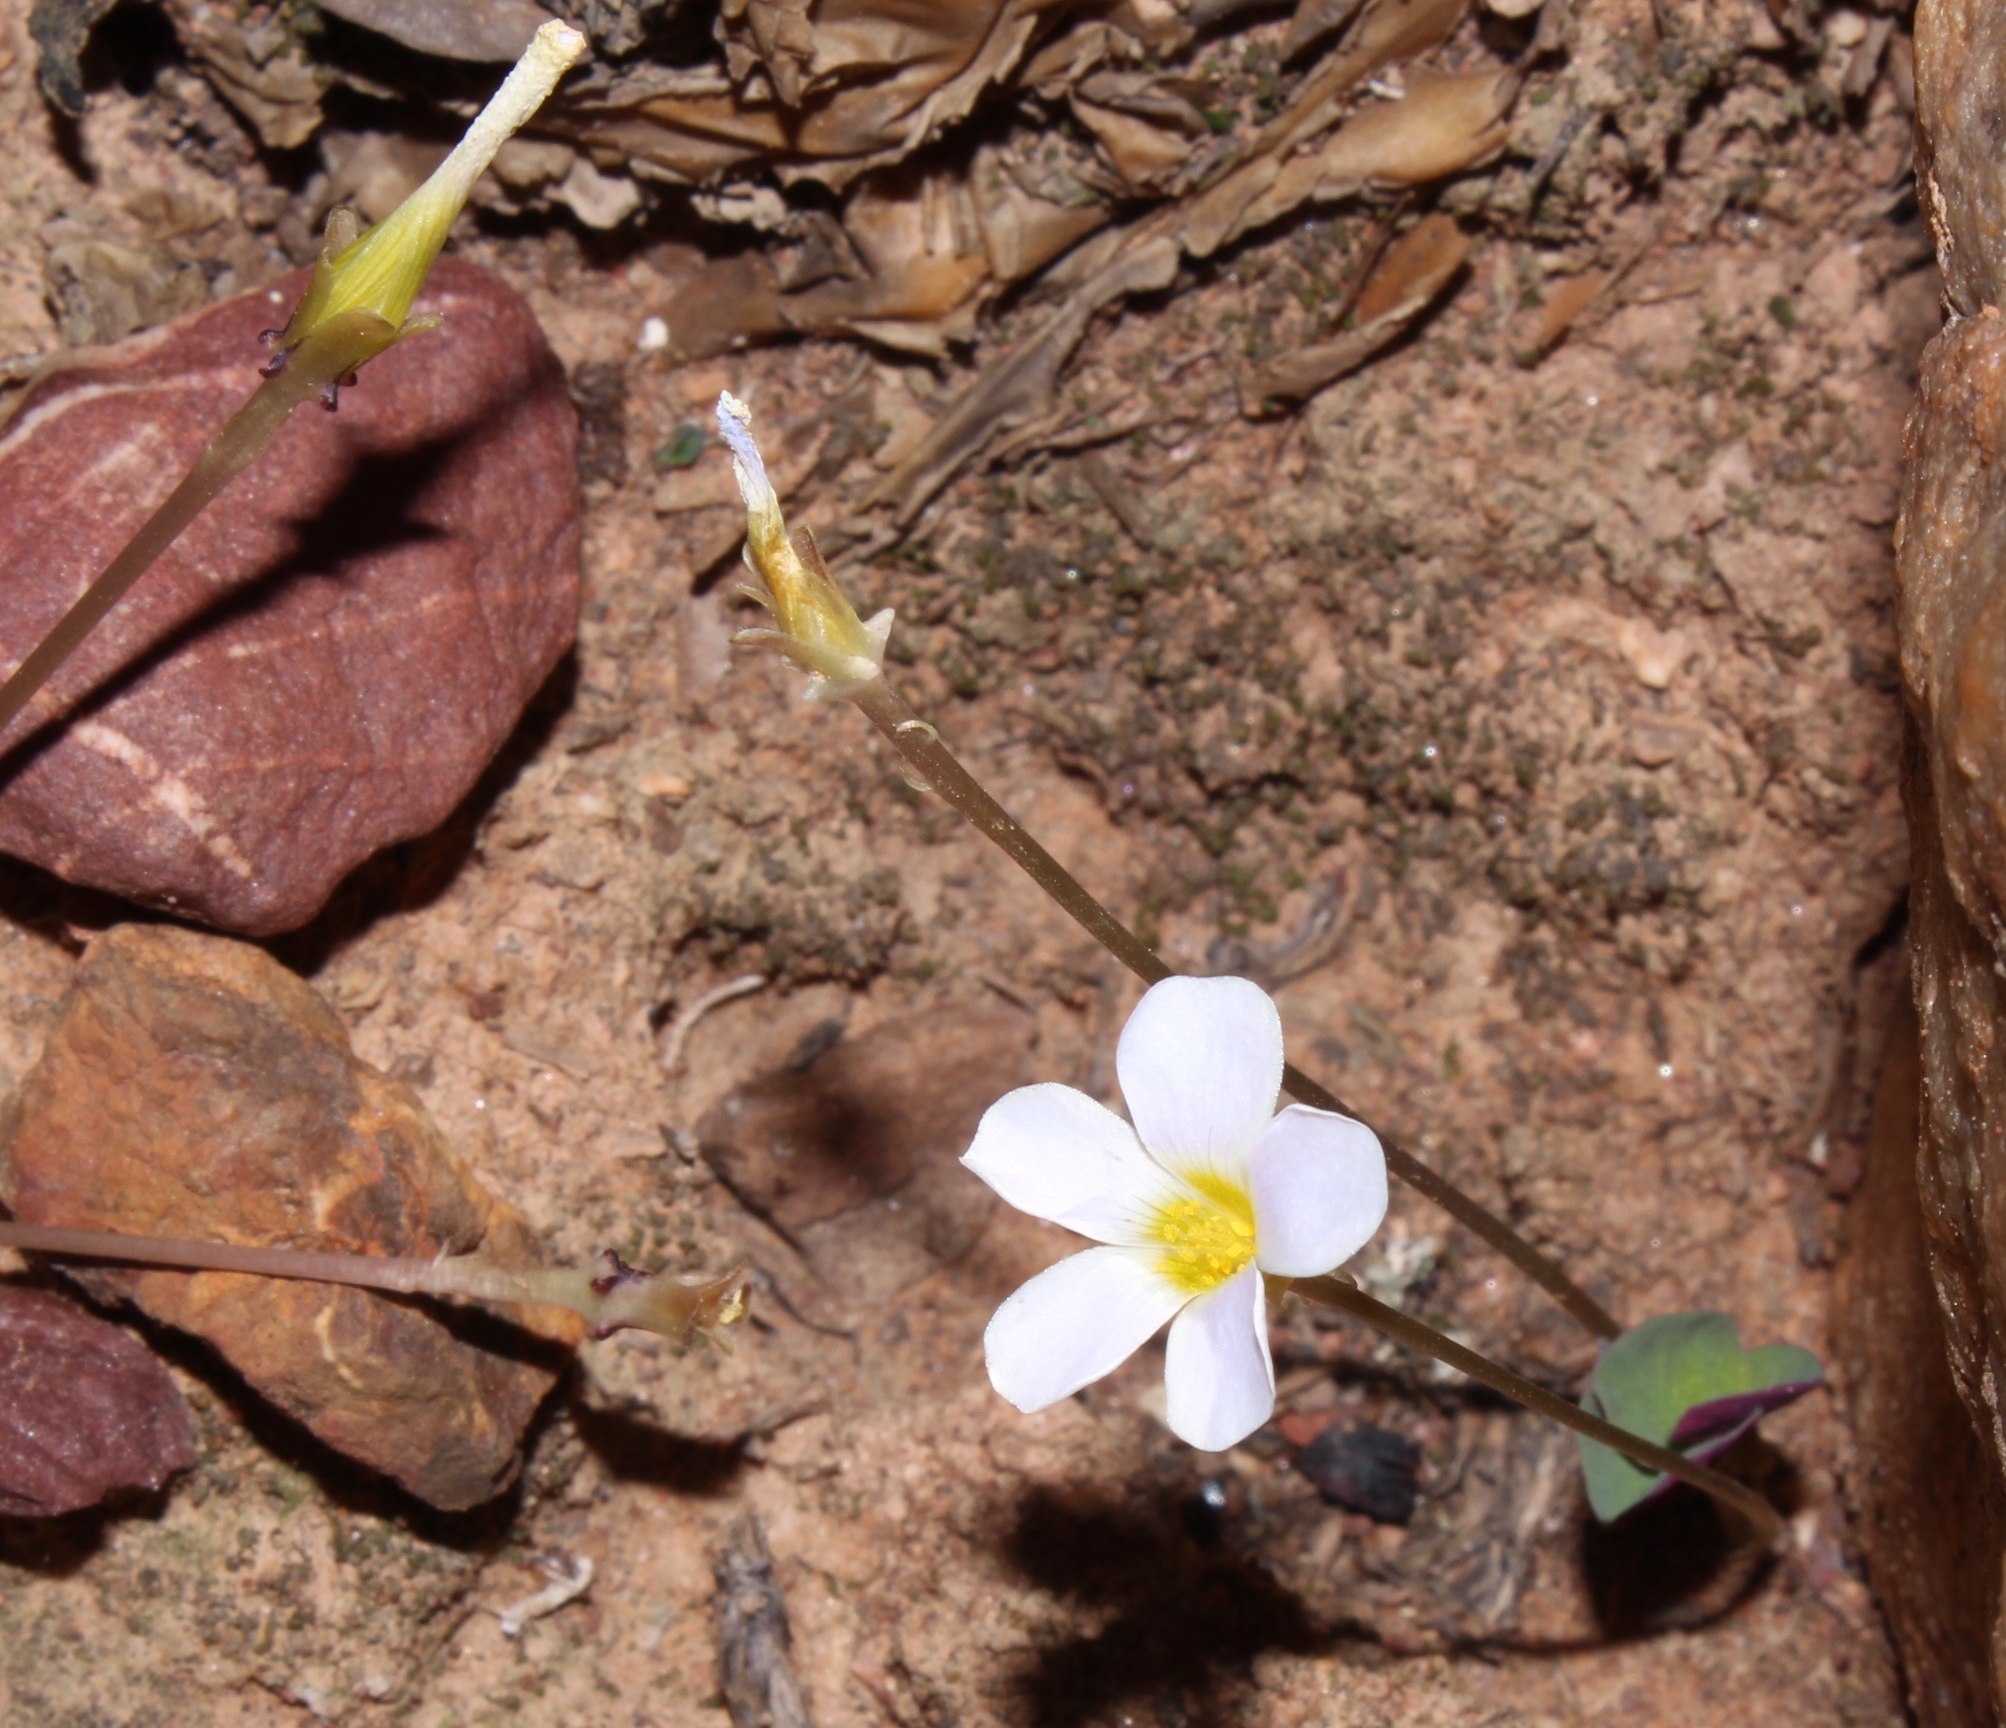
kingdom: Plantae
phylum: Tracheophyta
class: Magnoliopsida
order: Oxalidales
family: Oxalidaceae
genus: Oxalis
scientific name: Oxalis depressa
